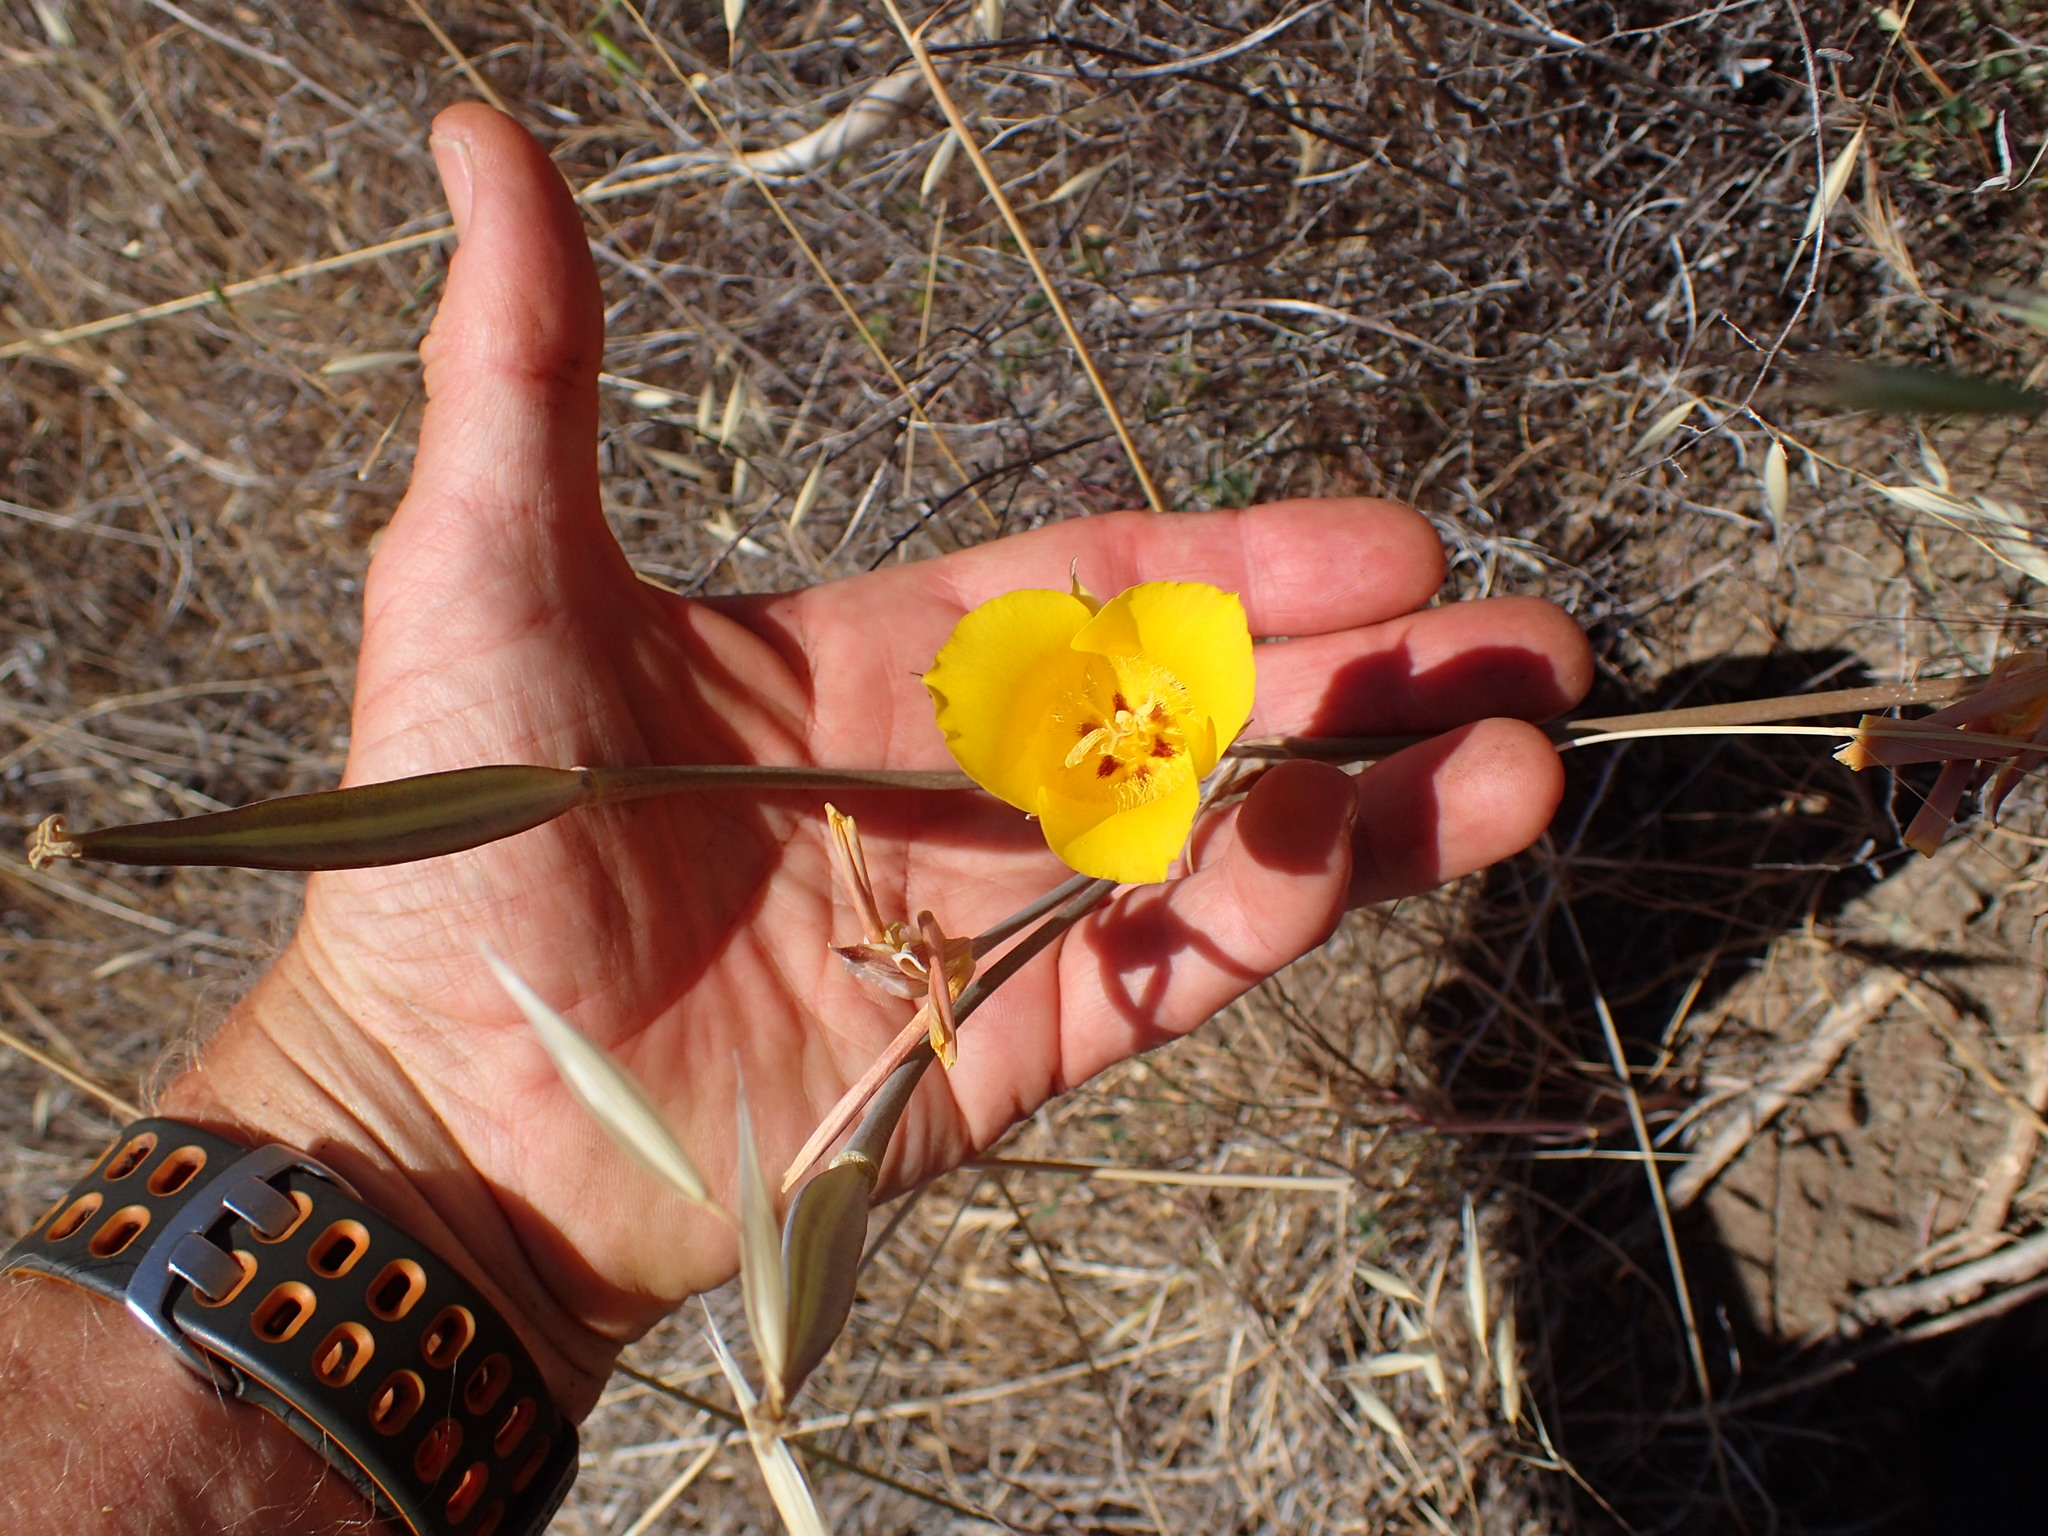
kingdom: Plantae
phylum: Tracheophyta
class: Liliopsida
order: Liliales
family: Liliaceae
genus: Calochortus
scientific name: Calochortus clavatus
